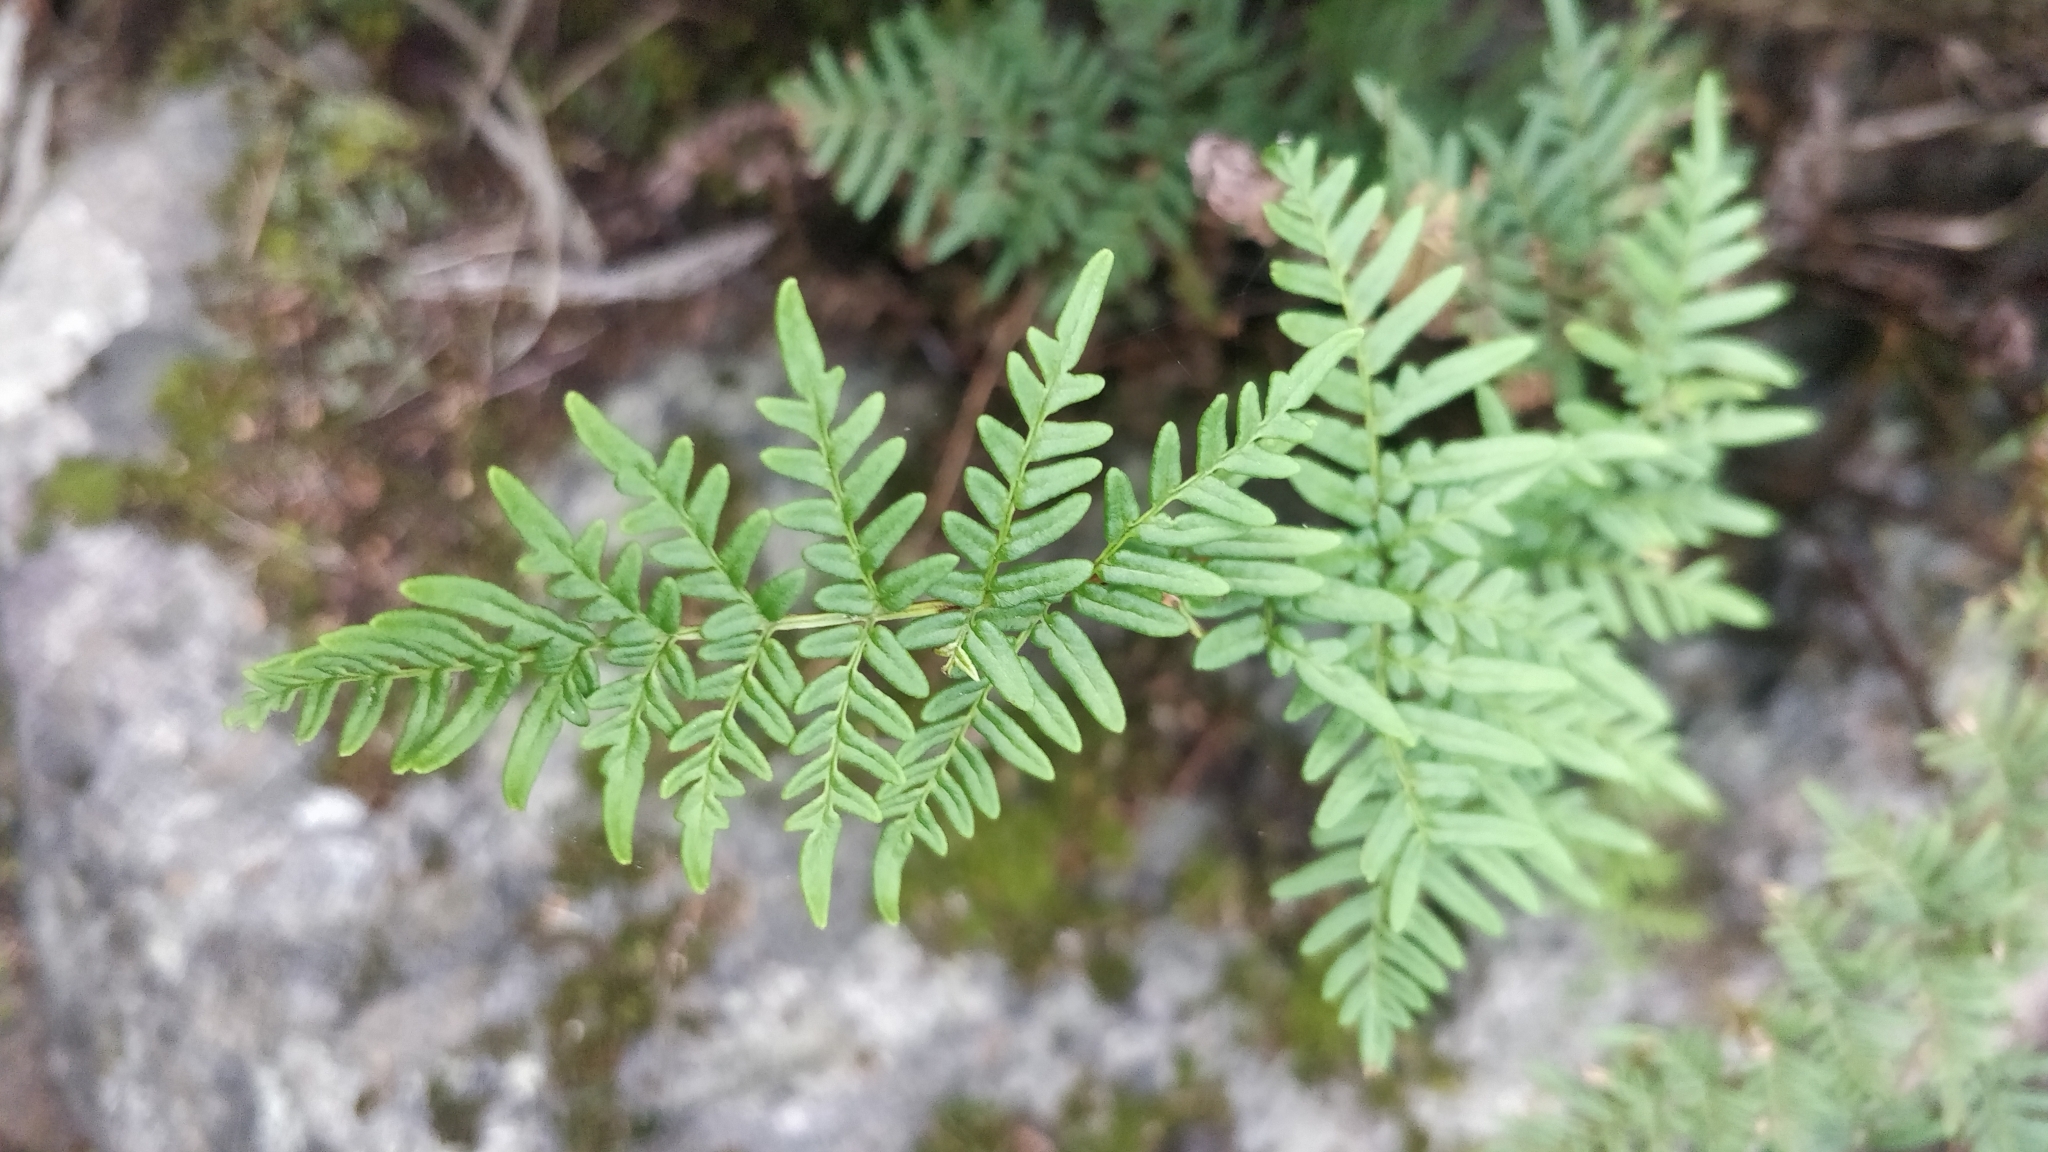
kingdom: Plantae
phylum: Tracheophyta
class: Polypodiopsida
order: Polypodiales
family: Pteridaceae
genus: Oeosporangium
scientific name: Oeosporangium pulchellum
